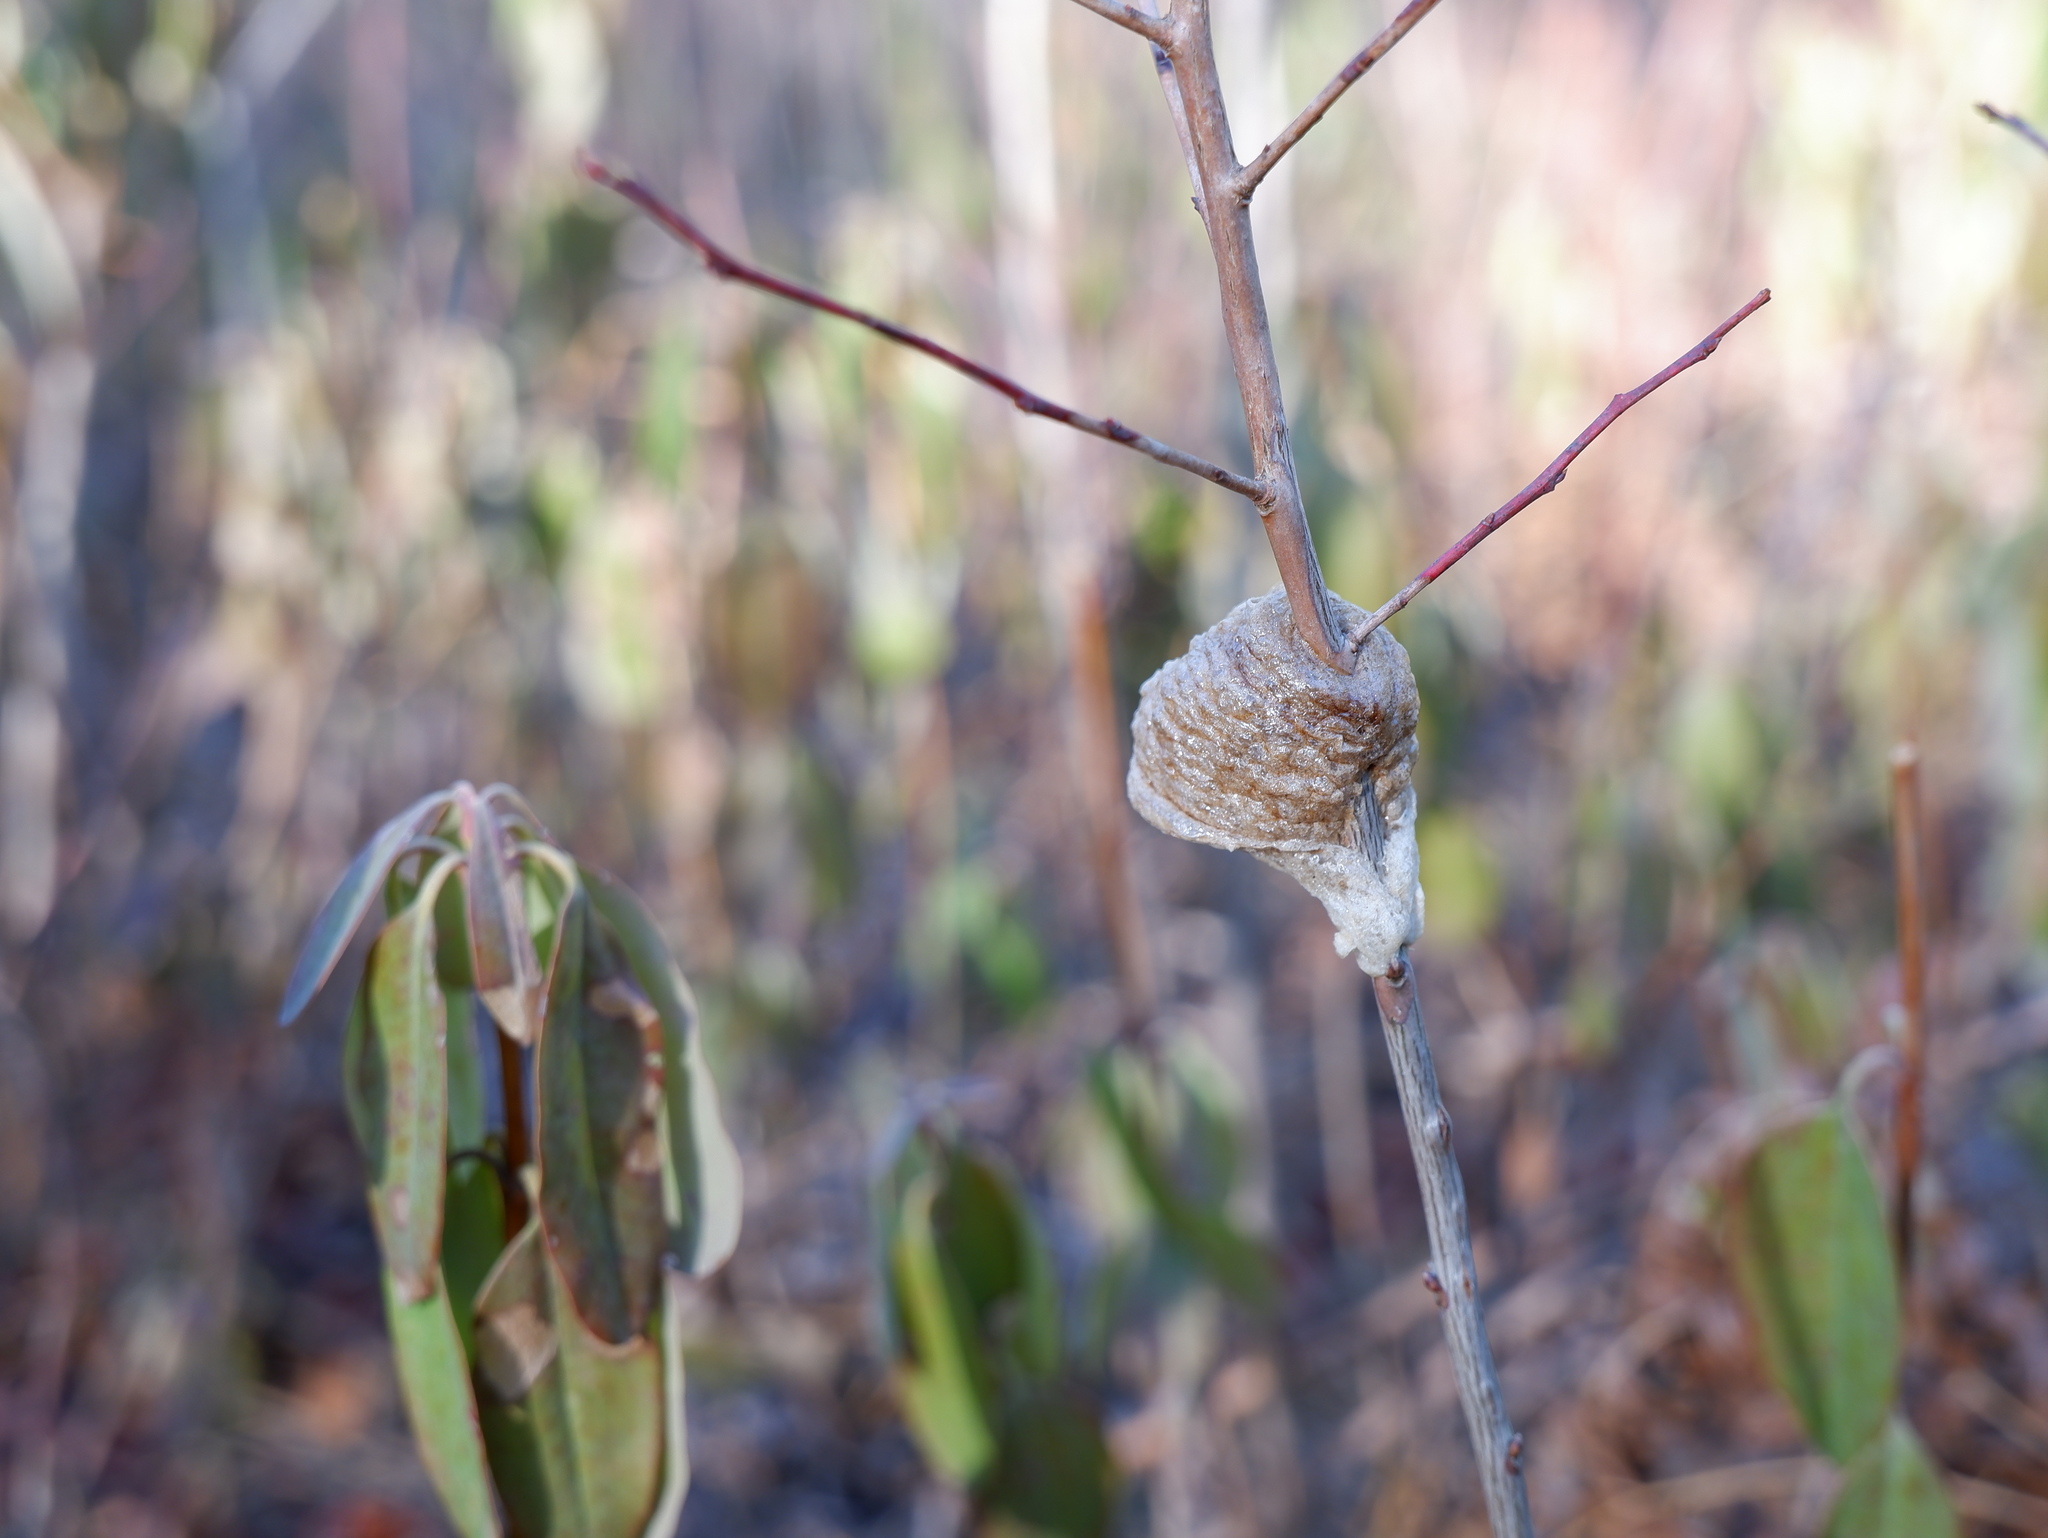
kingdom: Animalia
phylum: Arthropoda
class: Insecta
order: Mantodea
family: Mantidae
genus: Tenodera
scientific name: Tenodera sinensis
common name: Chinese mantis
